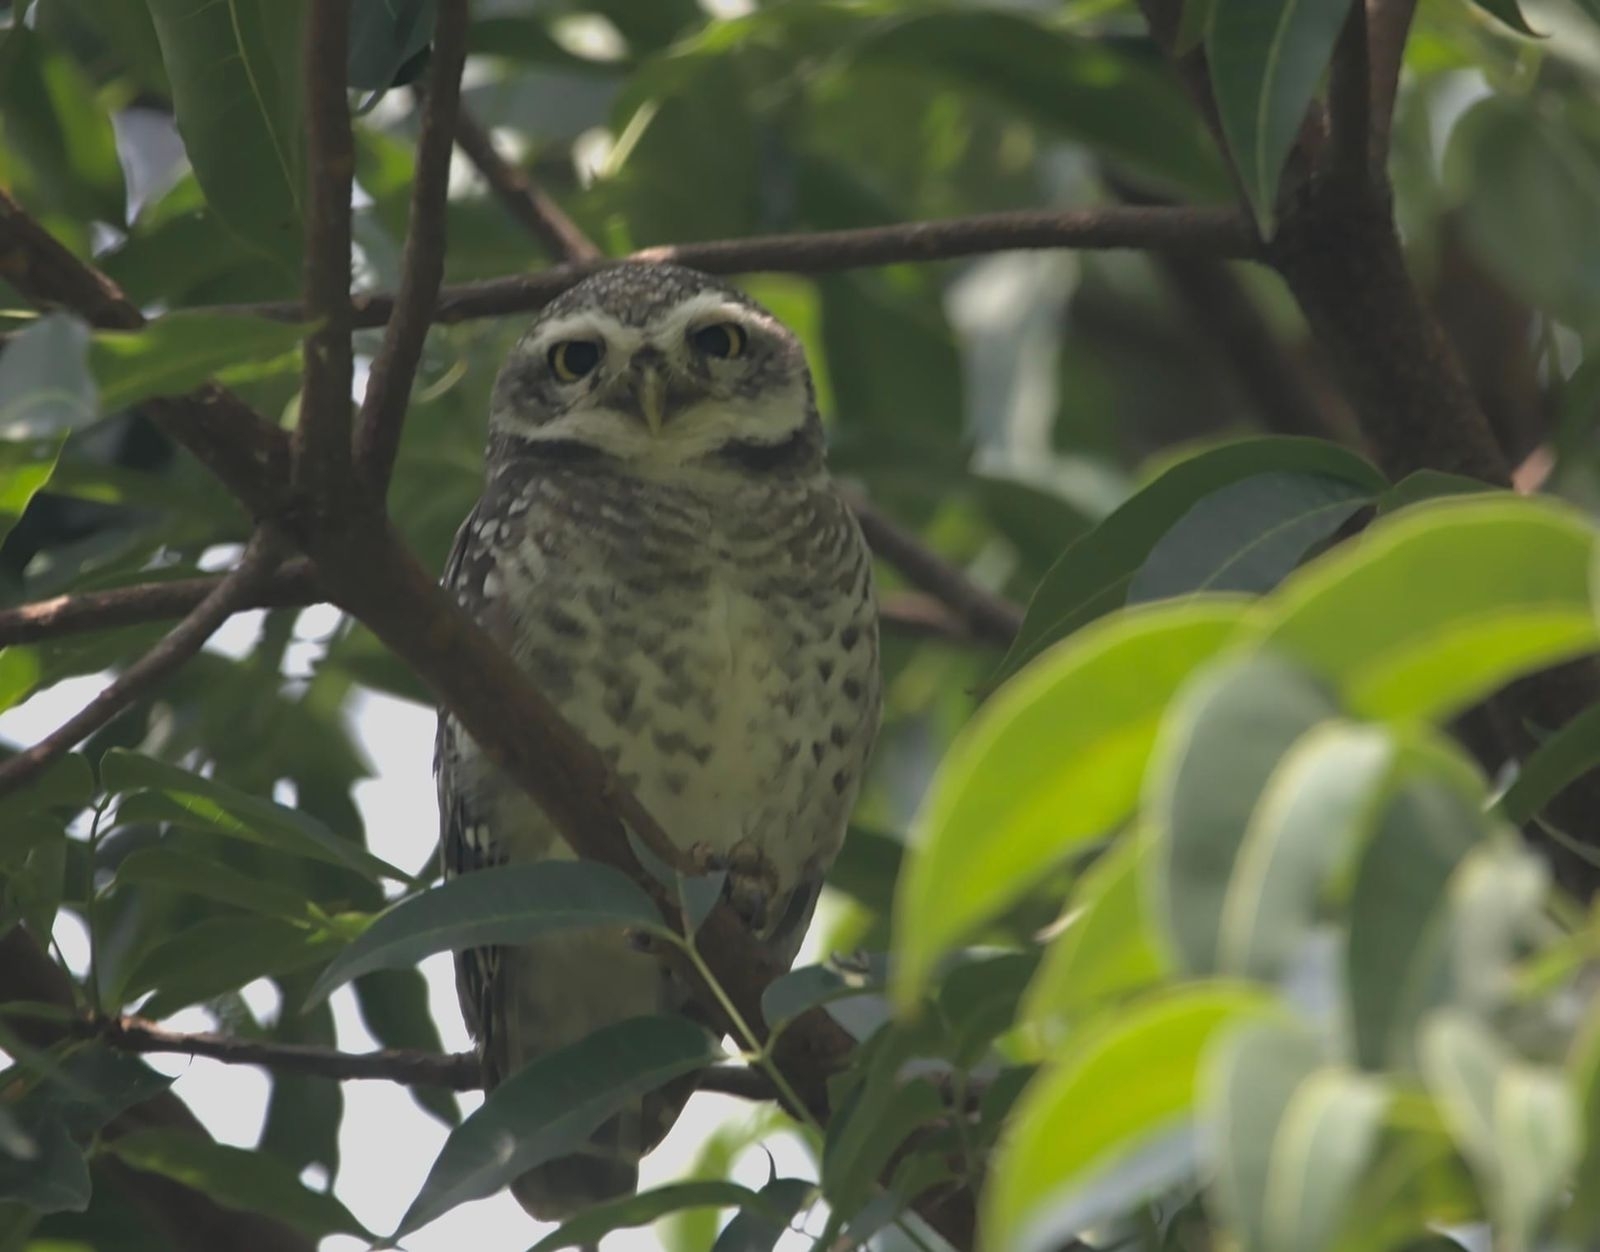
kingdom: Animalia
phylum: Chordata
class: Aves
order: Strigiformes
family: Strigidae
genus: Athene
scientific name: Athene brama
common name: Spotted owlet
